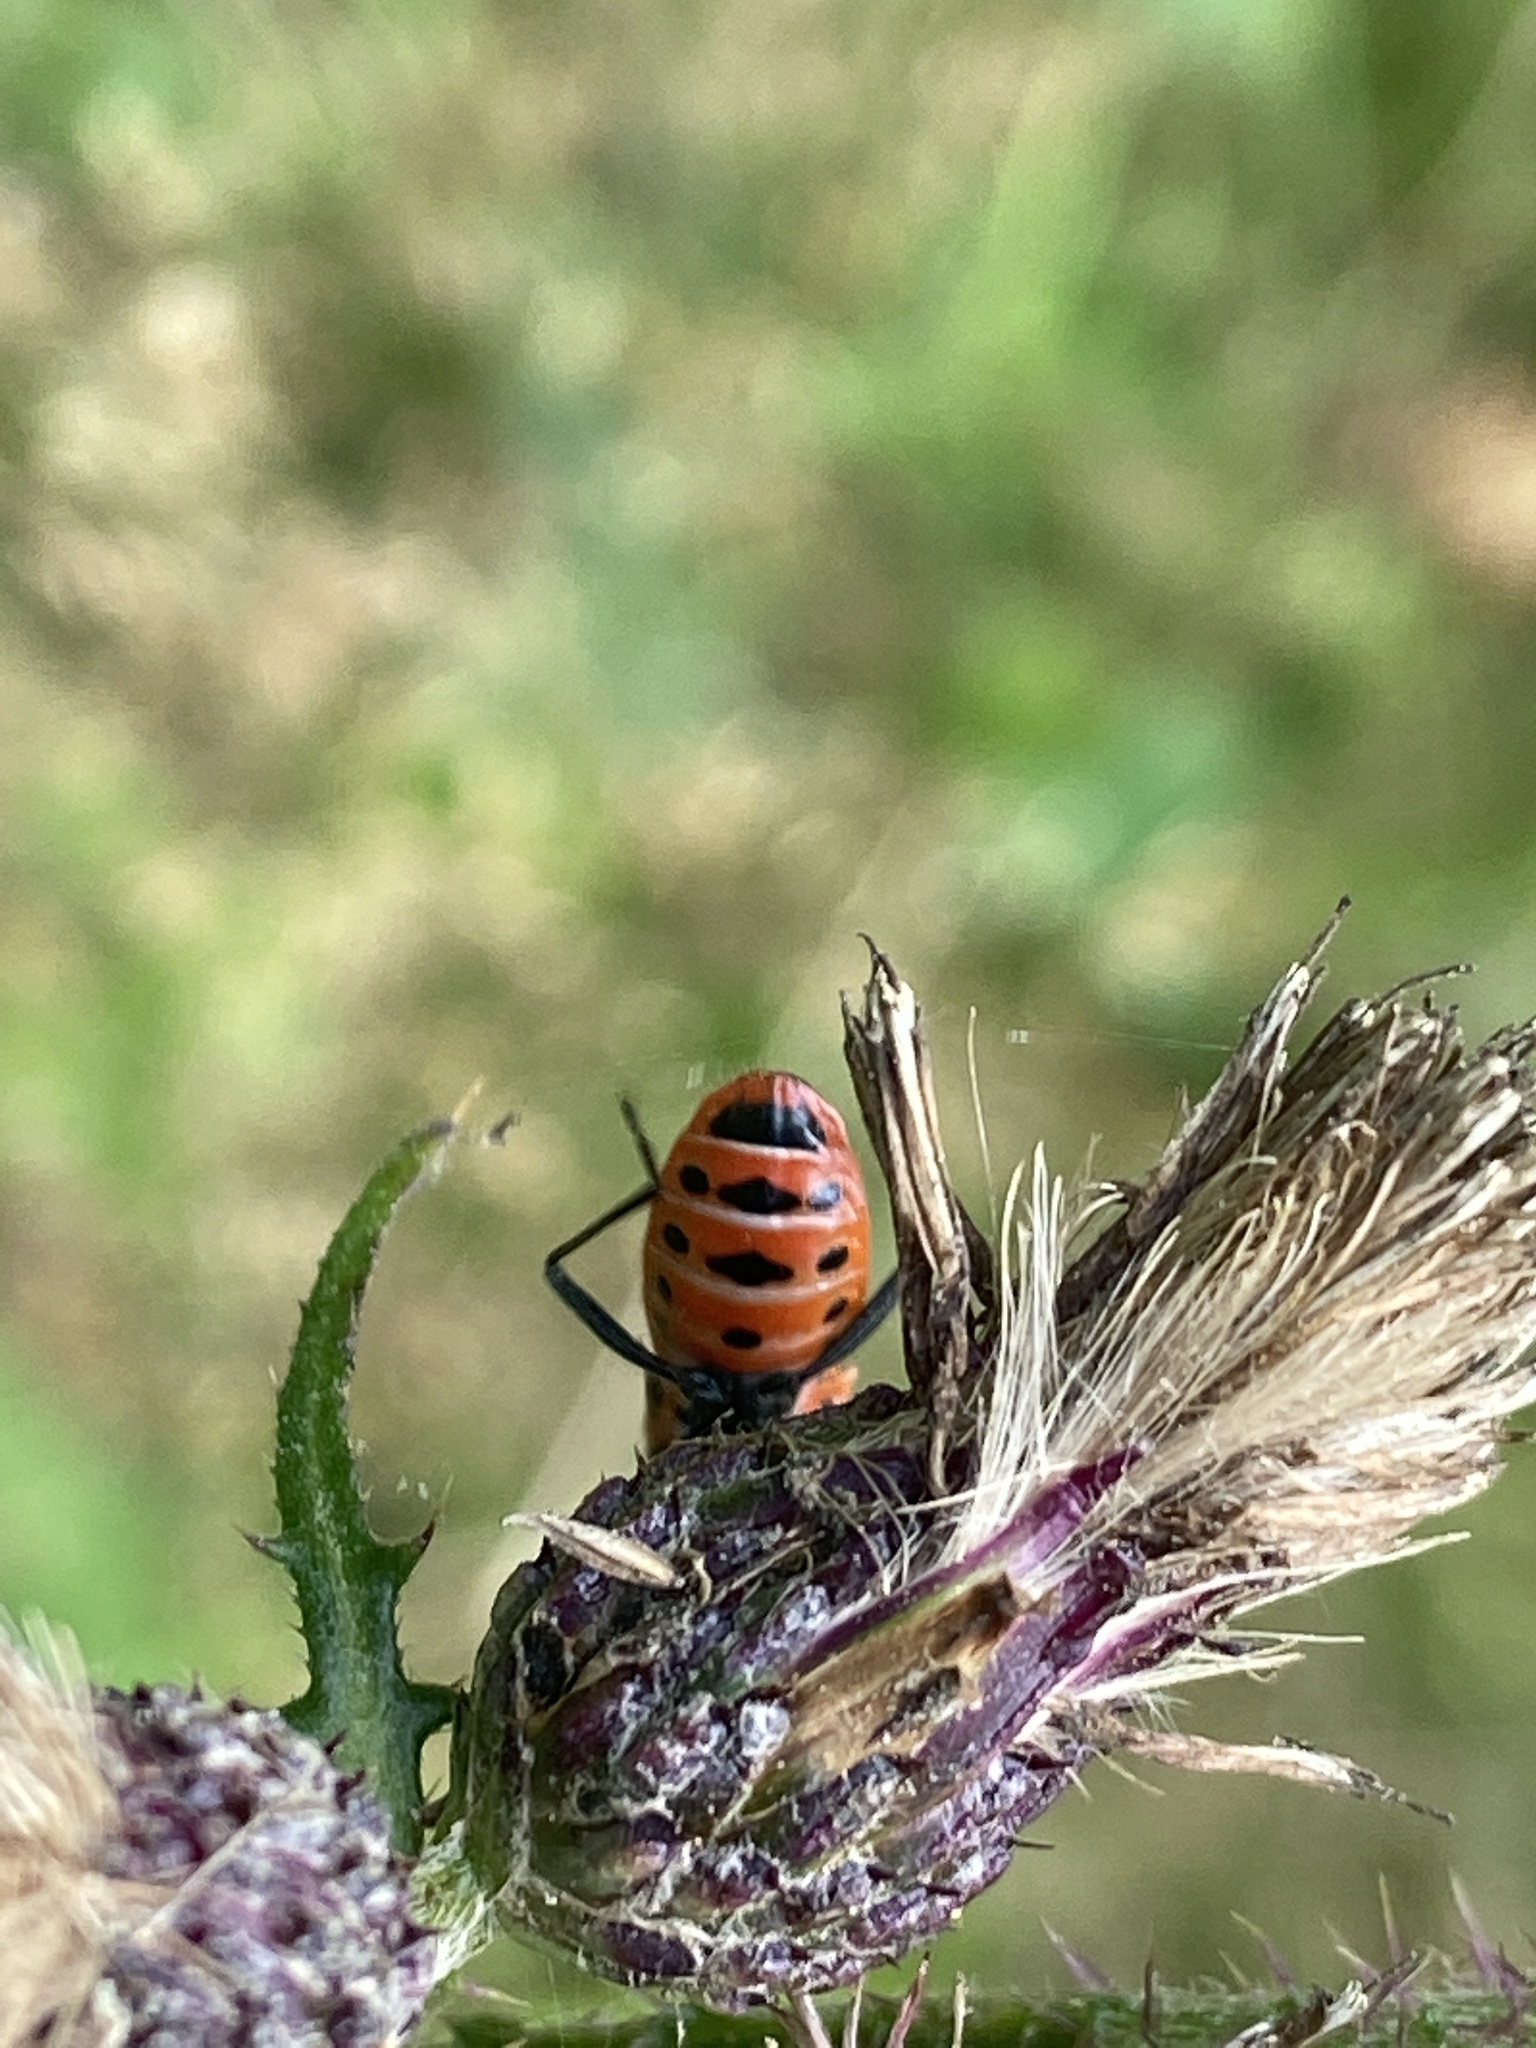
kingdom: Animalia
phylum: Arthropoda
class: Insecta
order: Hemiptera
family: Rhopalidae
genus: Corizus
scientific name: Corizus hyoscyami
